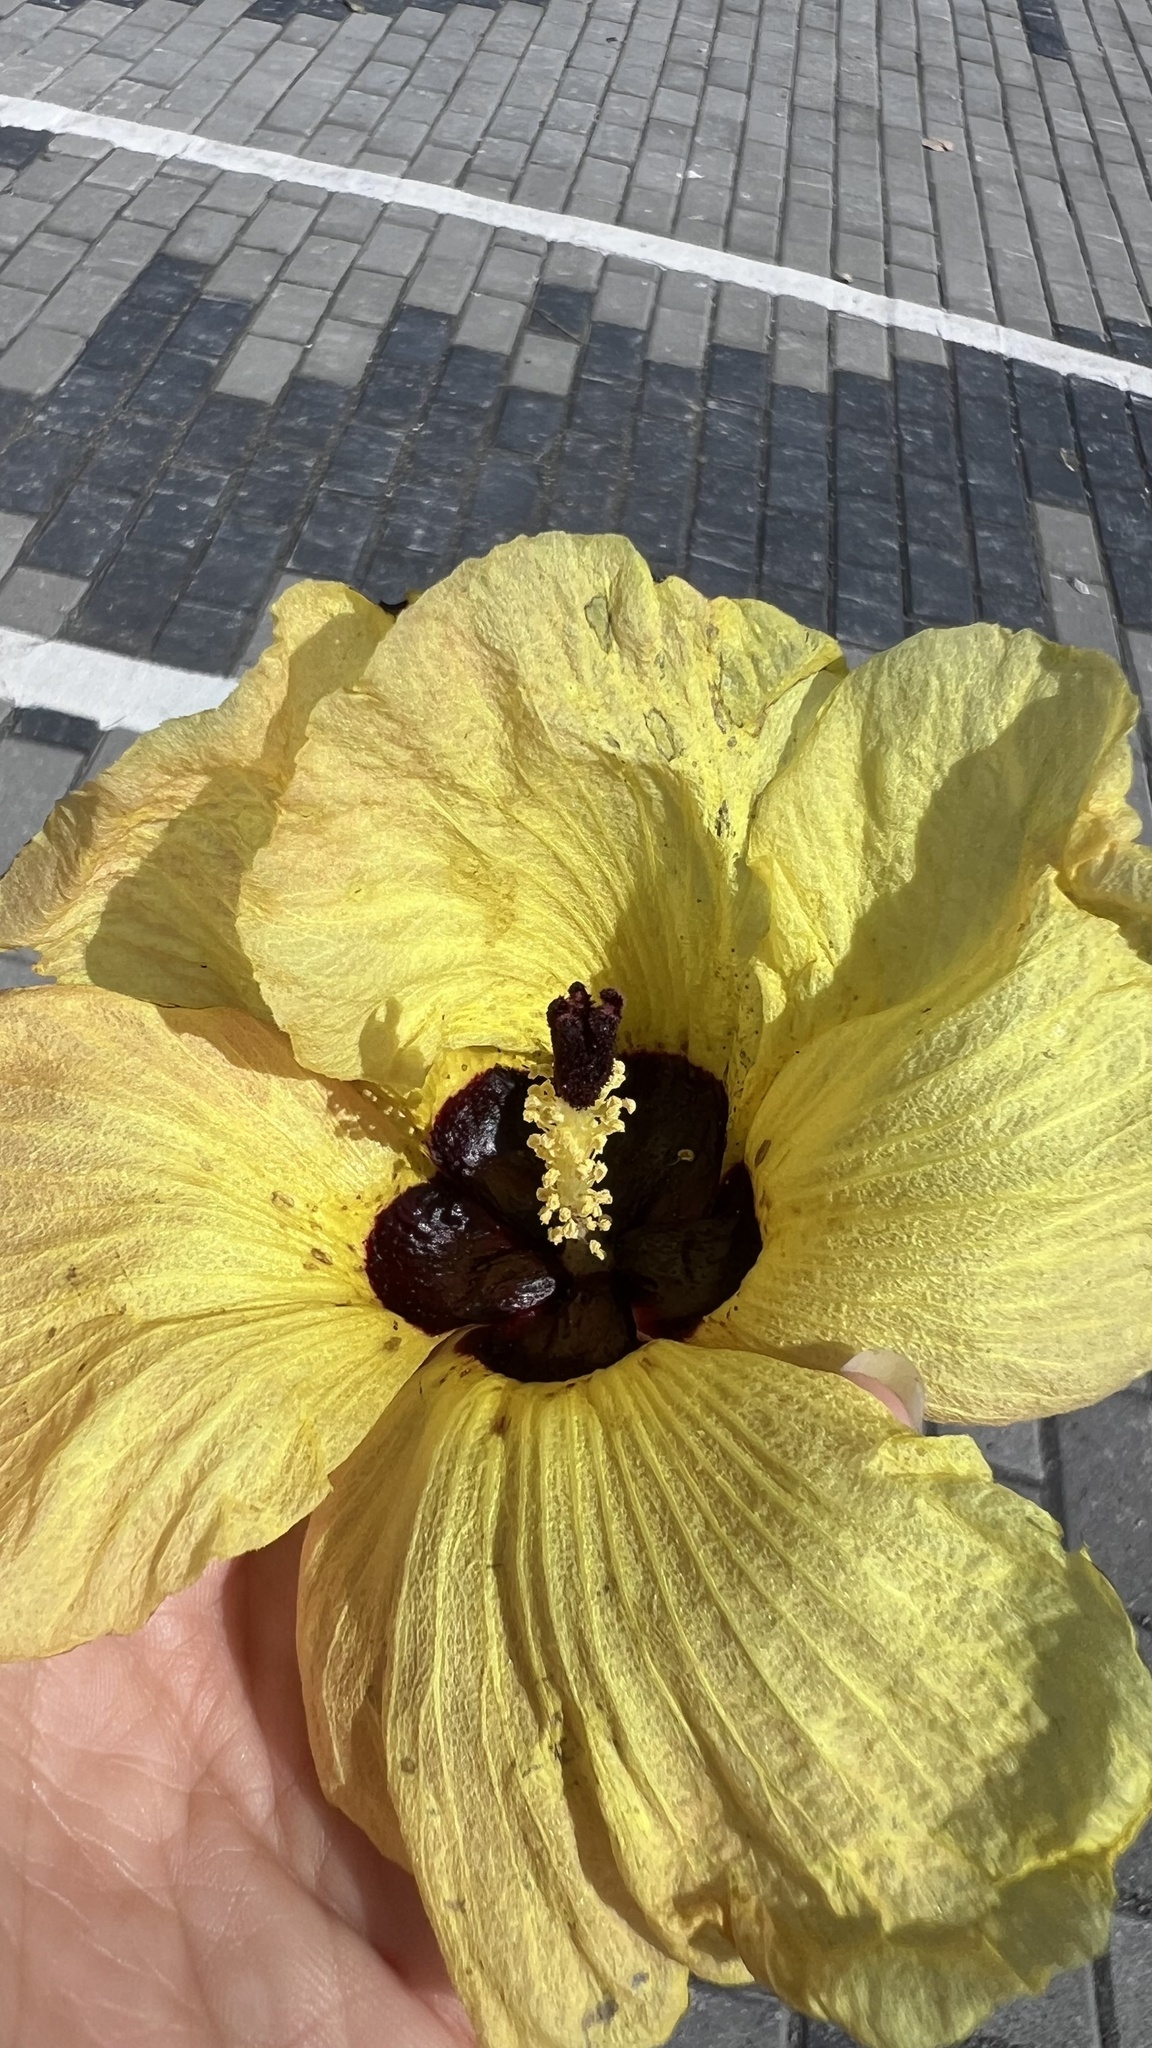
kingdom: Plantae
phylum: Tracheophyta
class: Magnoliopsida
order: Malvales
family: Malvaceae
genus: Talipariti
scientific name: Talipariti tiliaceum
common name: Sea hibiscus
